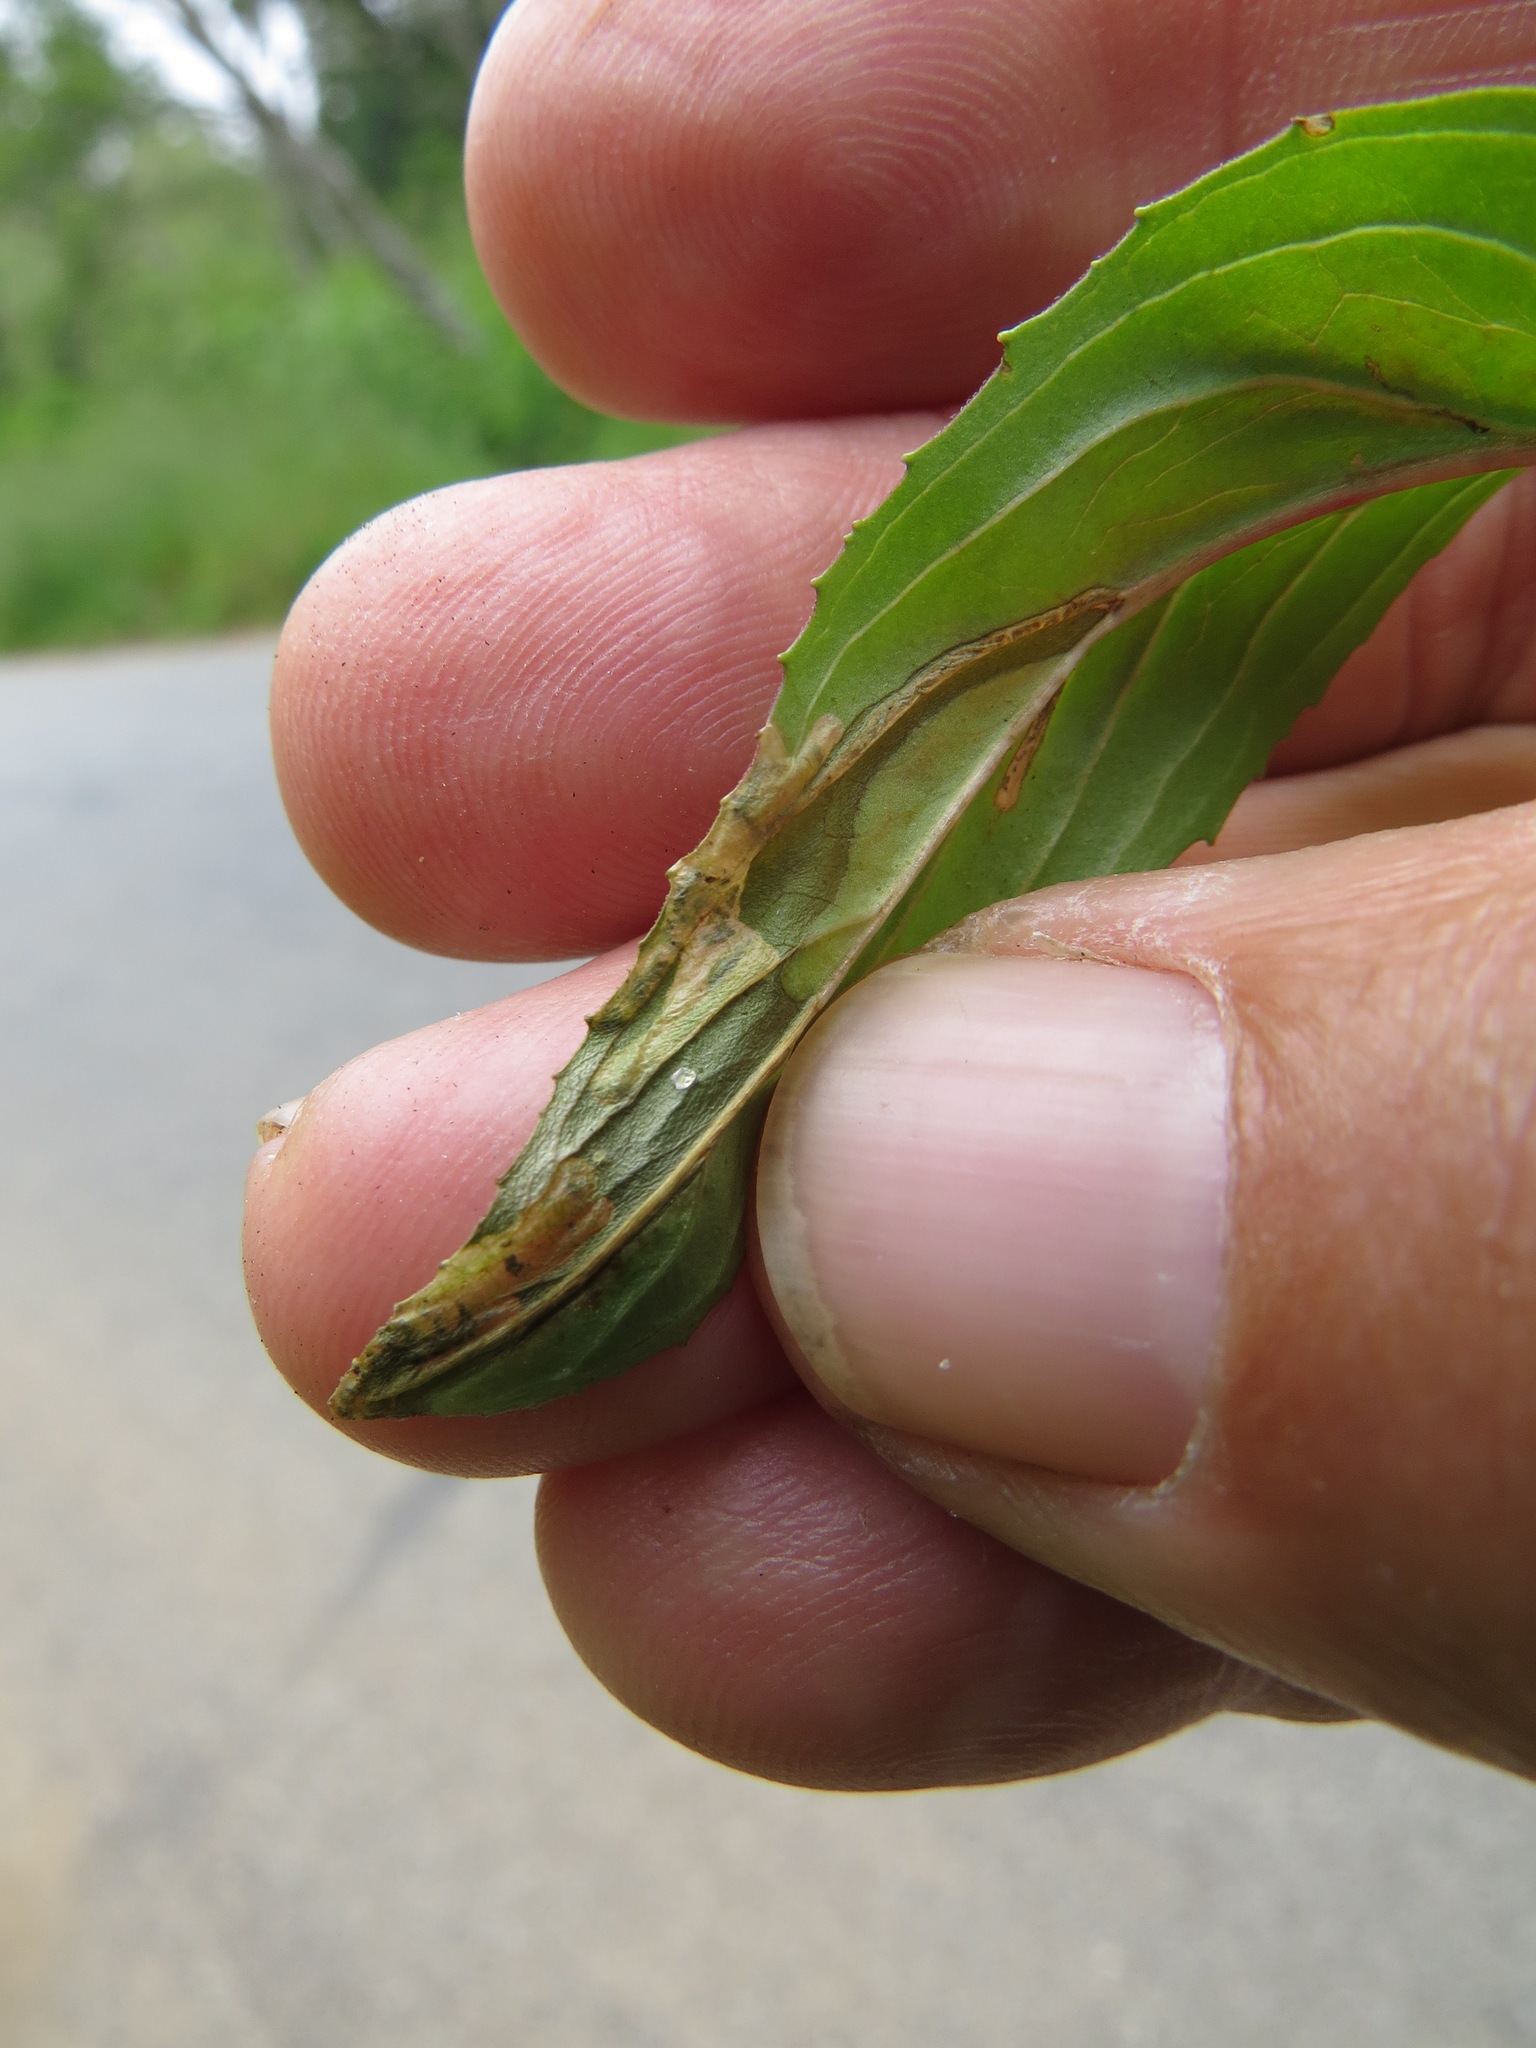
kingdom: Animalia
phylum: Arthropoda
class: Insecta
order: Lepidoptera
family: Momphidae
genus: Mompha
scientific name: Mompha
